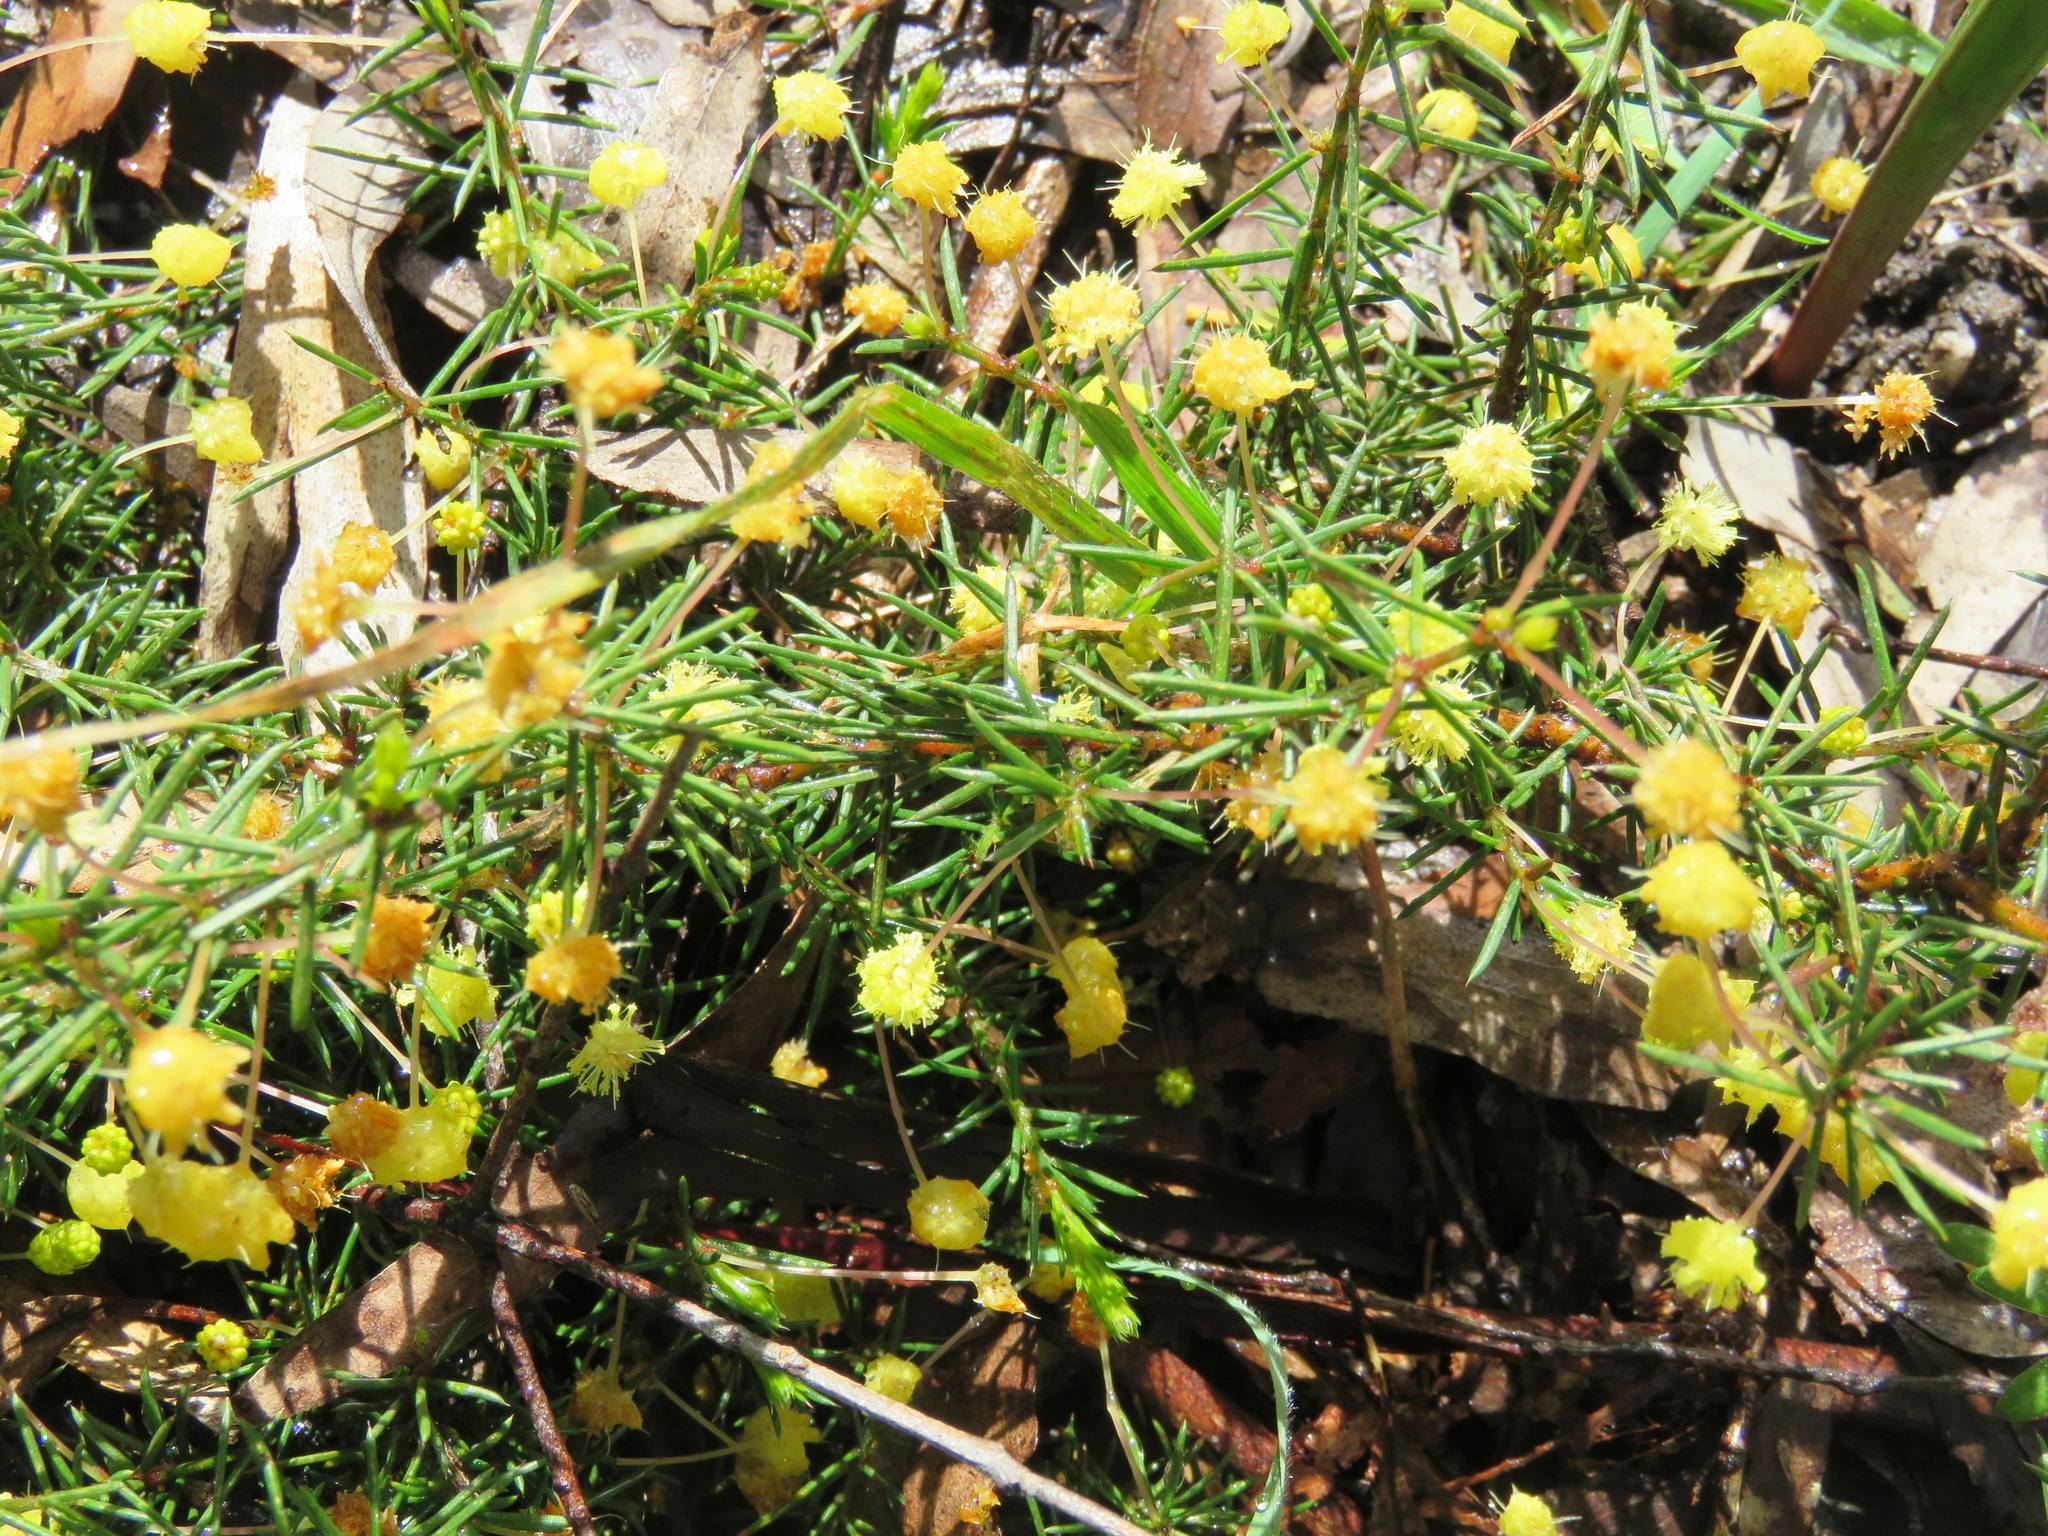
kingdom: Plantae
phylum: Tracheophyta
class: Magnoliopsida
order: Fabales
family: Fabaceae
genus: Acacia
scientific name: Acacia aculeatissima
